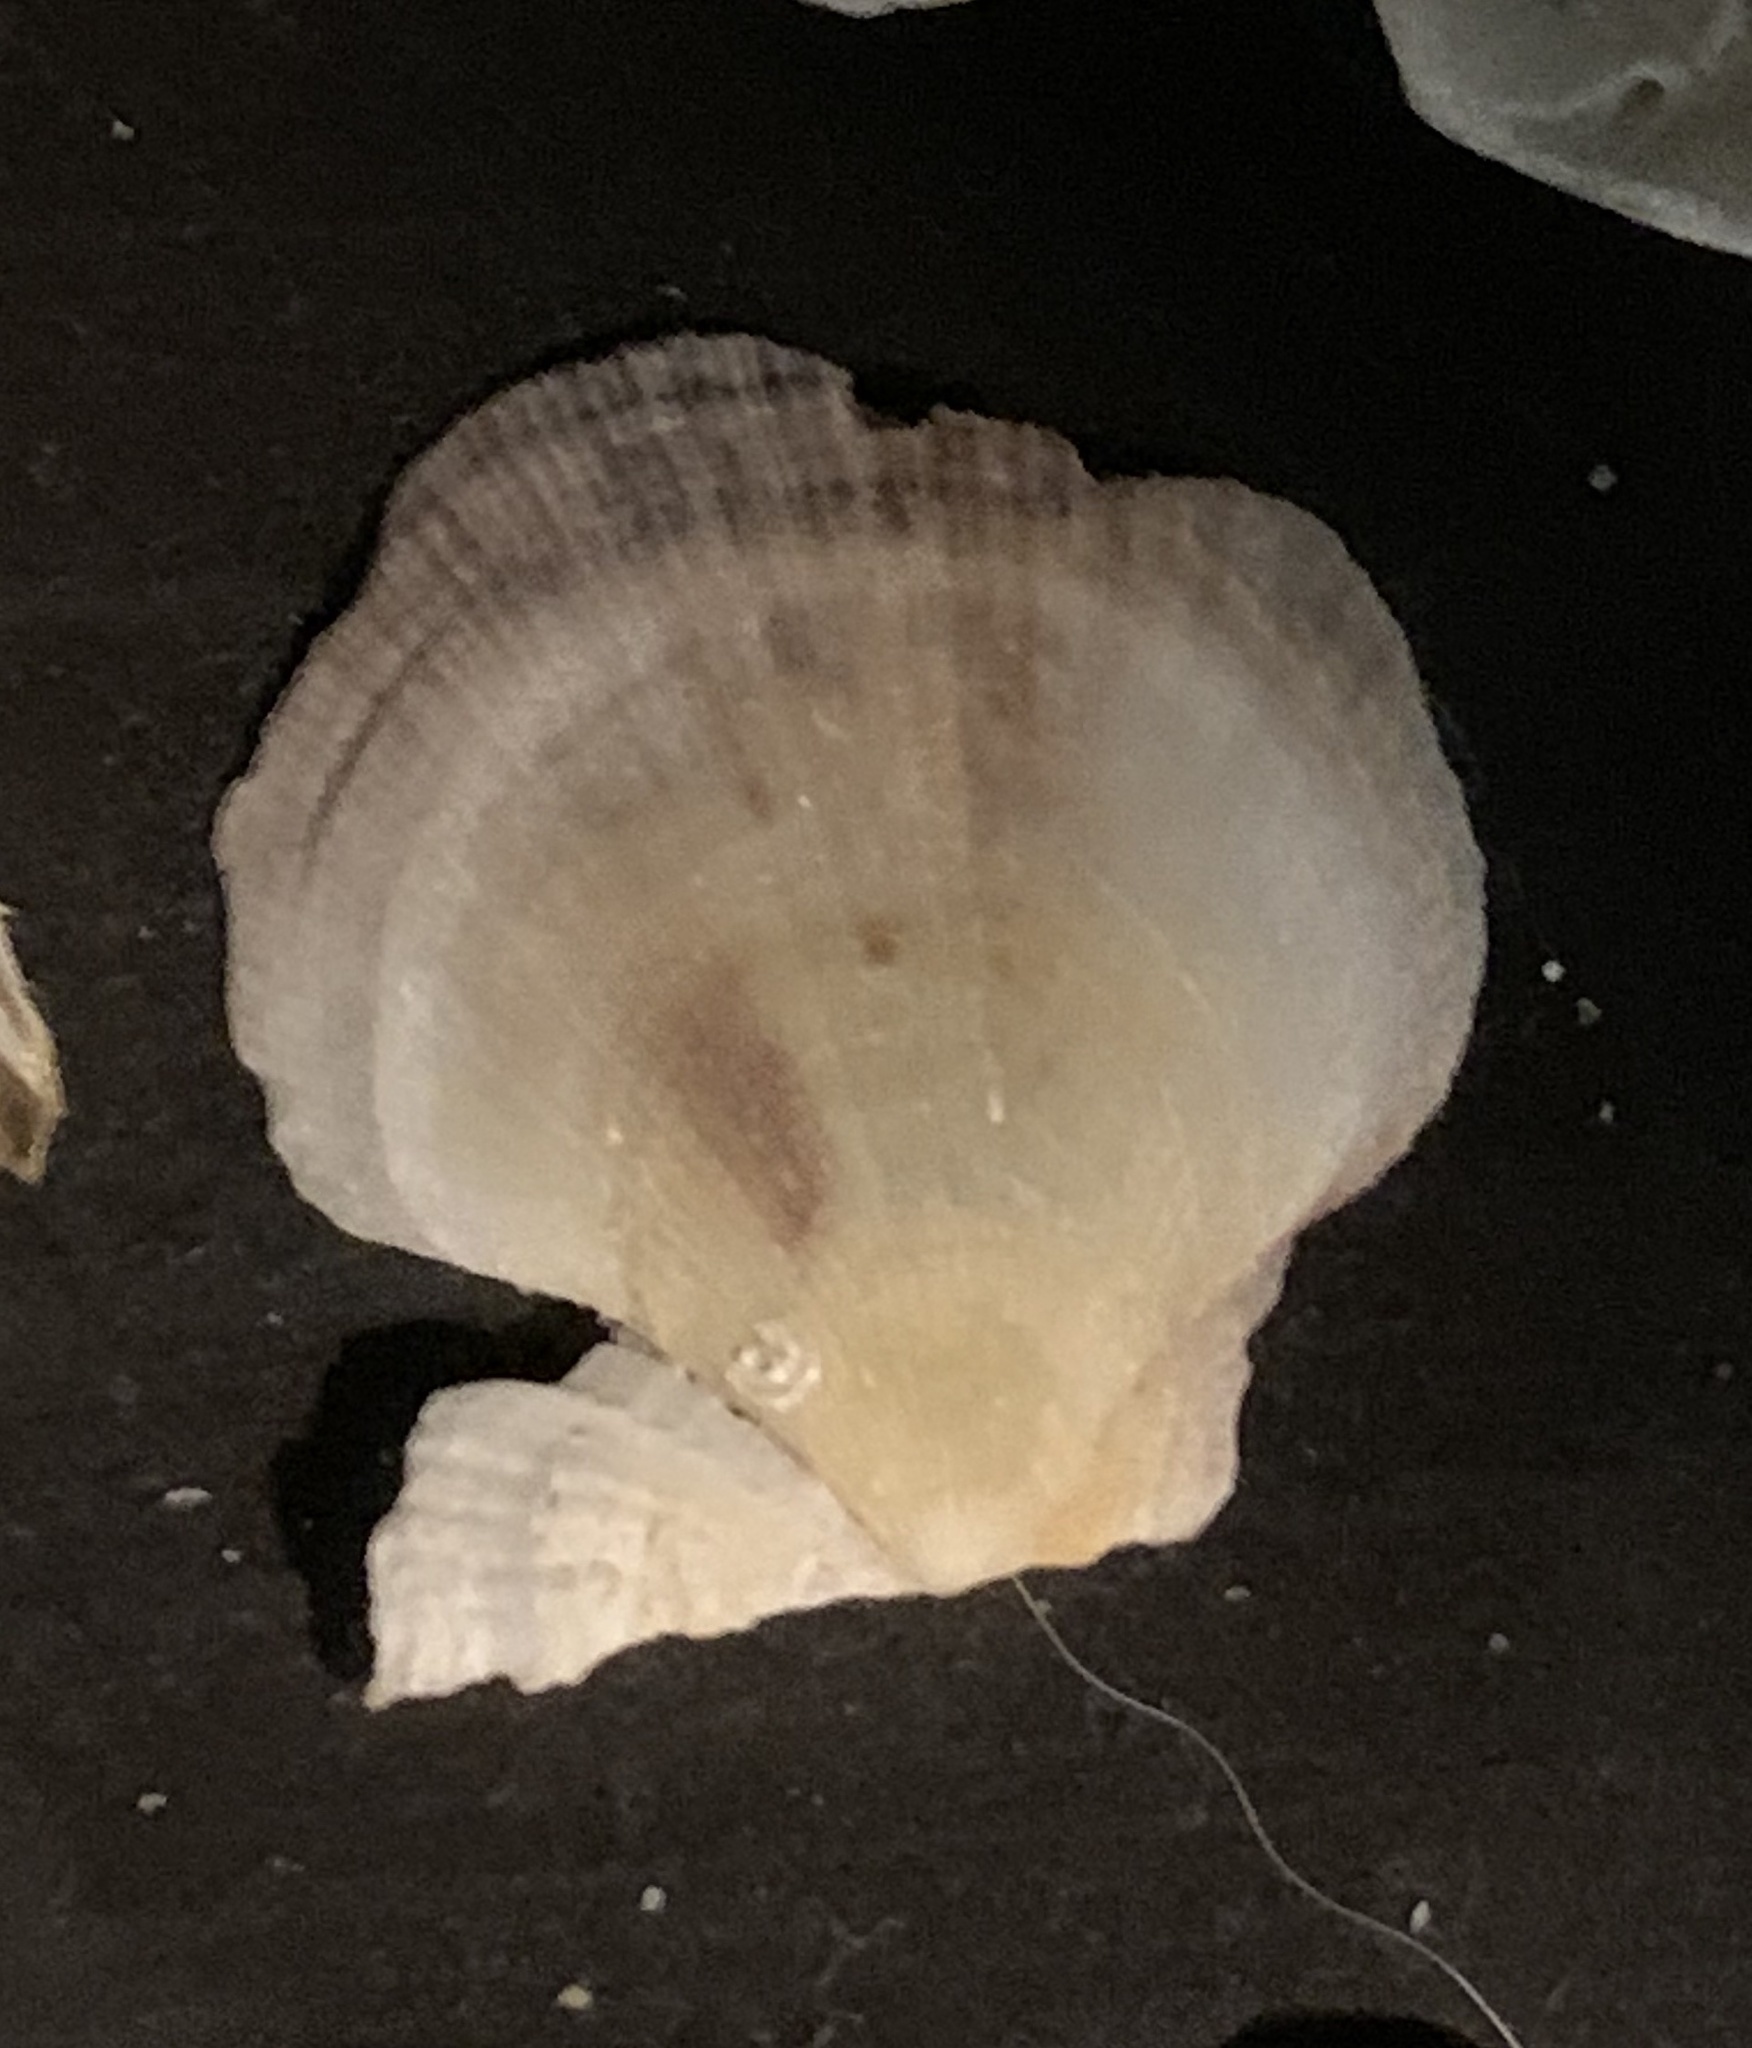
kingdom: Animalia
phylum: Mollusca
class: Bivalvia
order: Pectinida
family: Pectinidae
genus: Crassadoma
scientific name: Crassadoma gigantea
